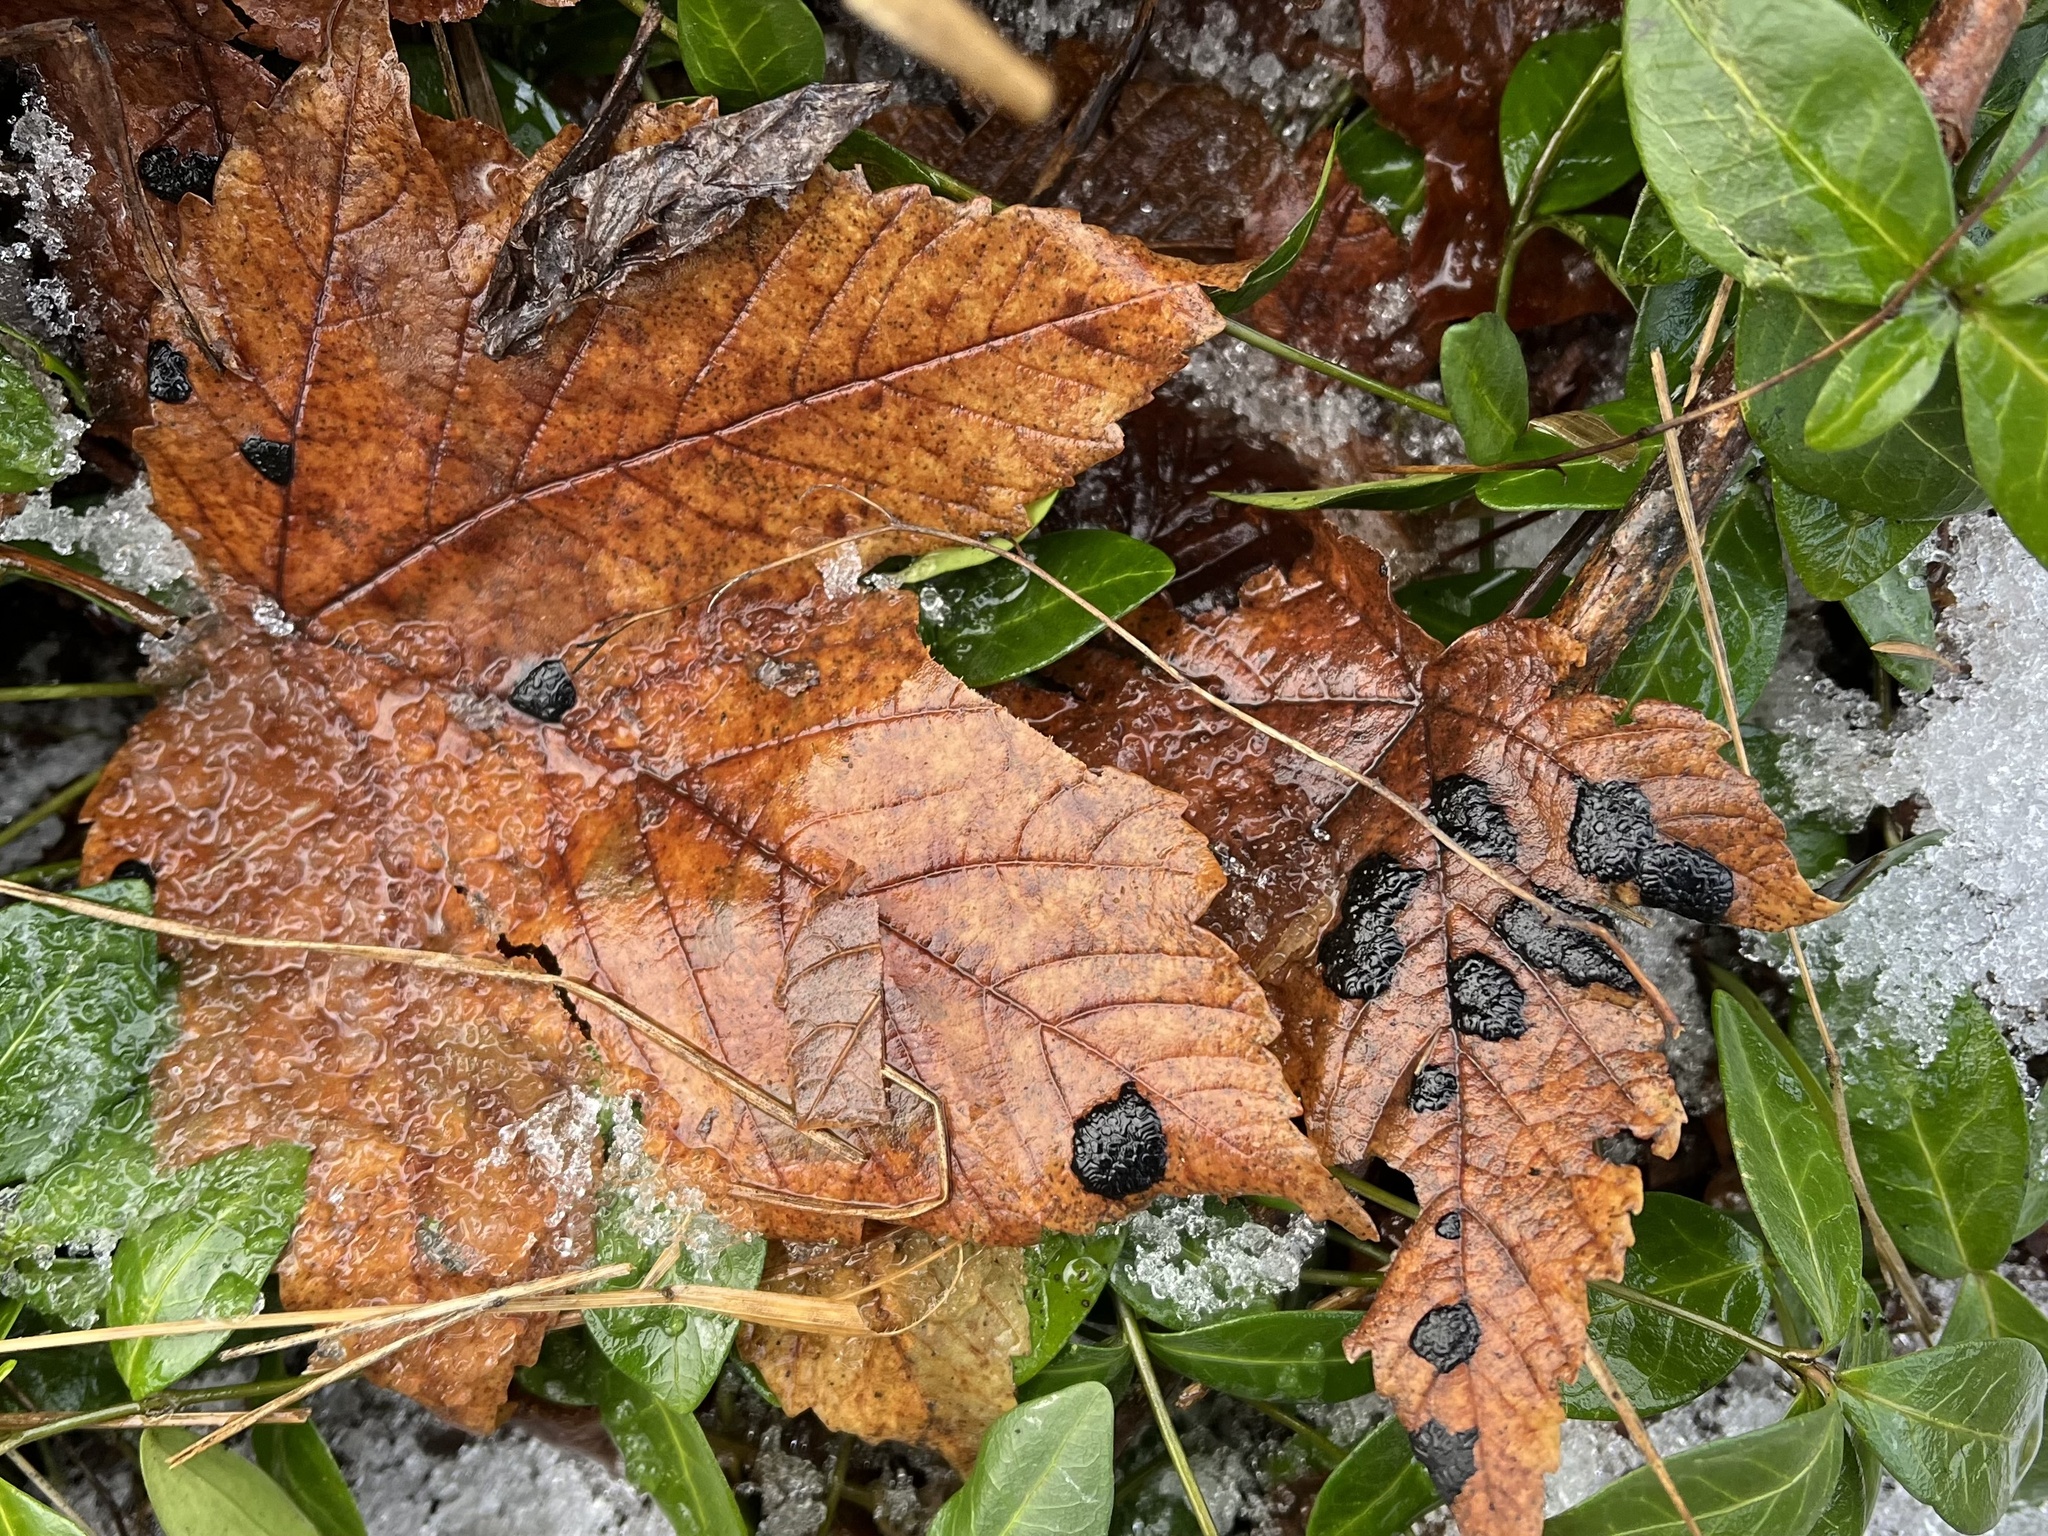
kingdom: Fungi
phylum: Ascomycota
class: Leotiomycetes
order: Rhytismatales
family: Rhytismataceae
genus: Rhytisma
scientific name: Rhytisma acerinum
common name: European tar spot
